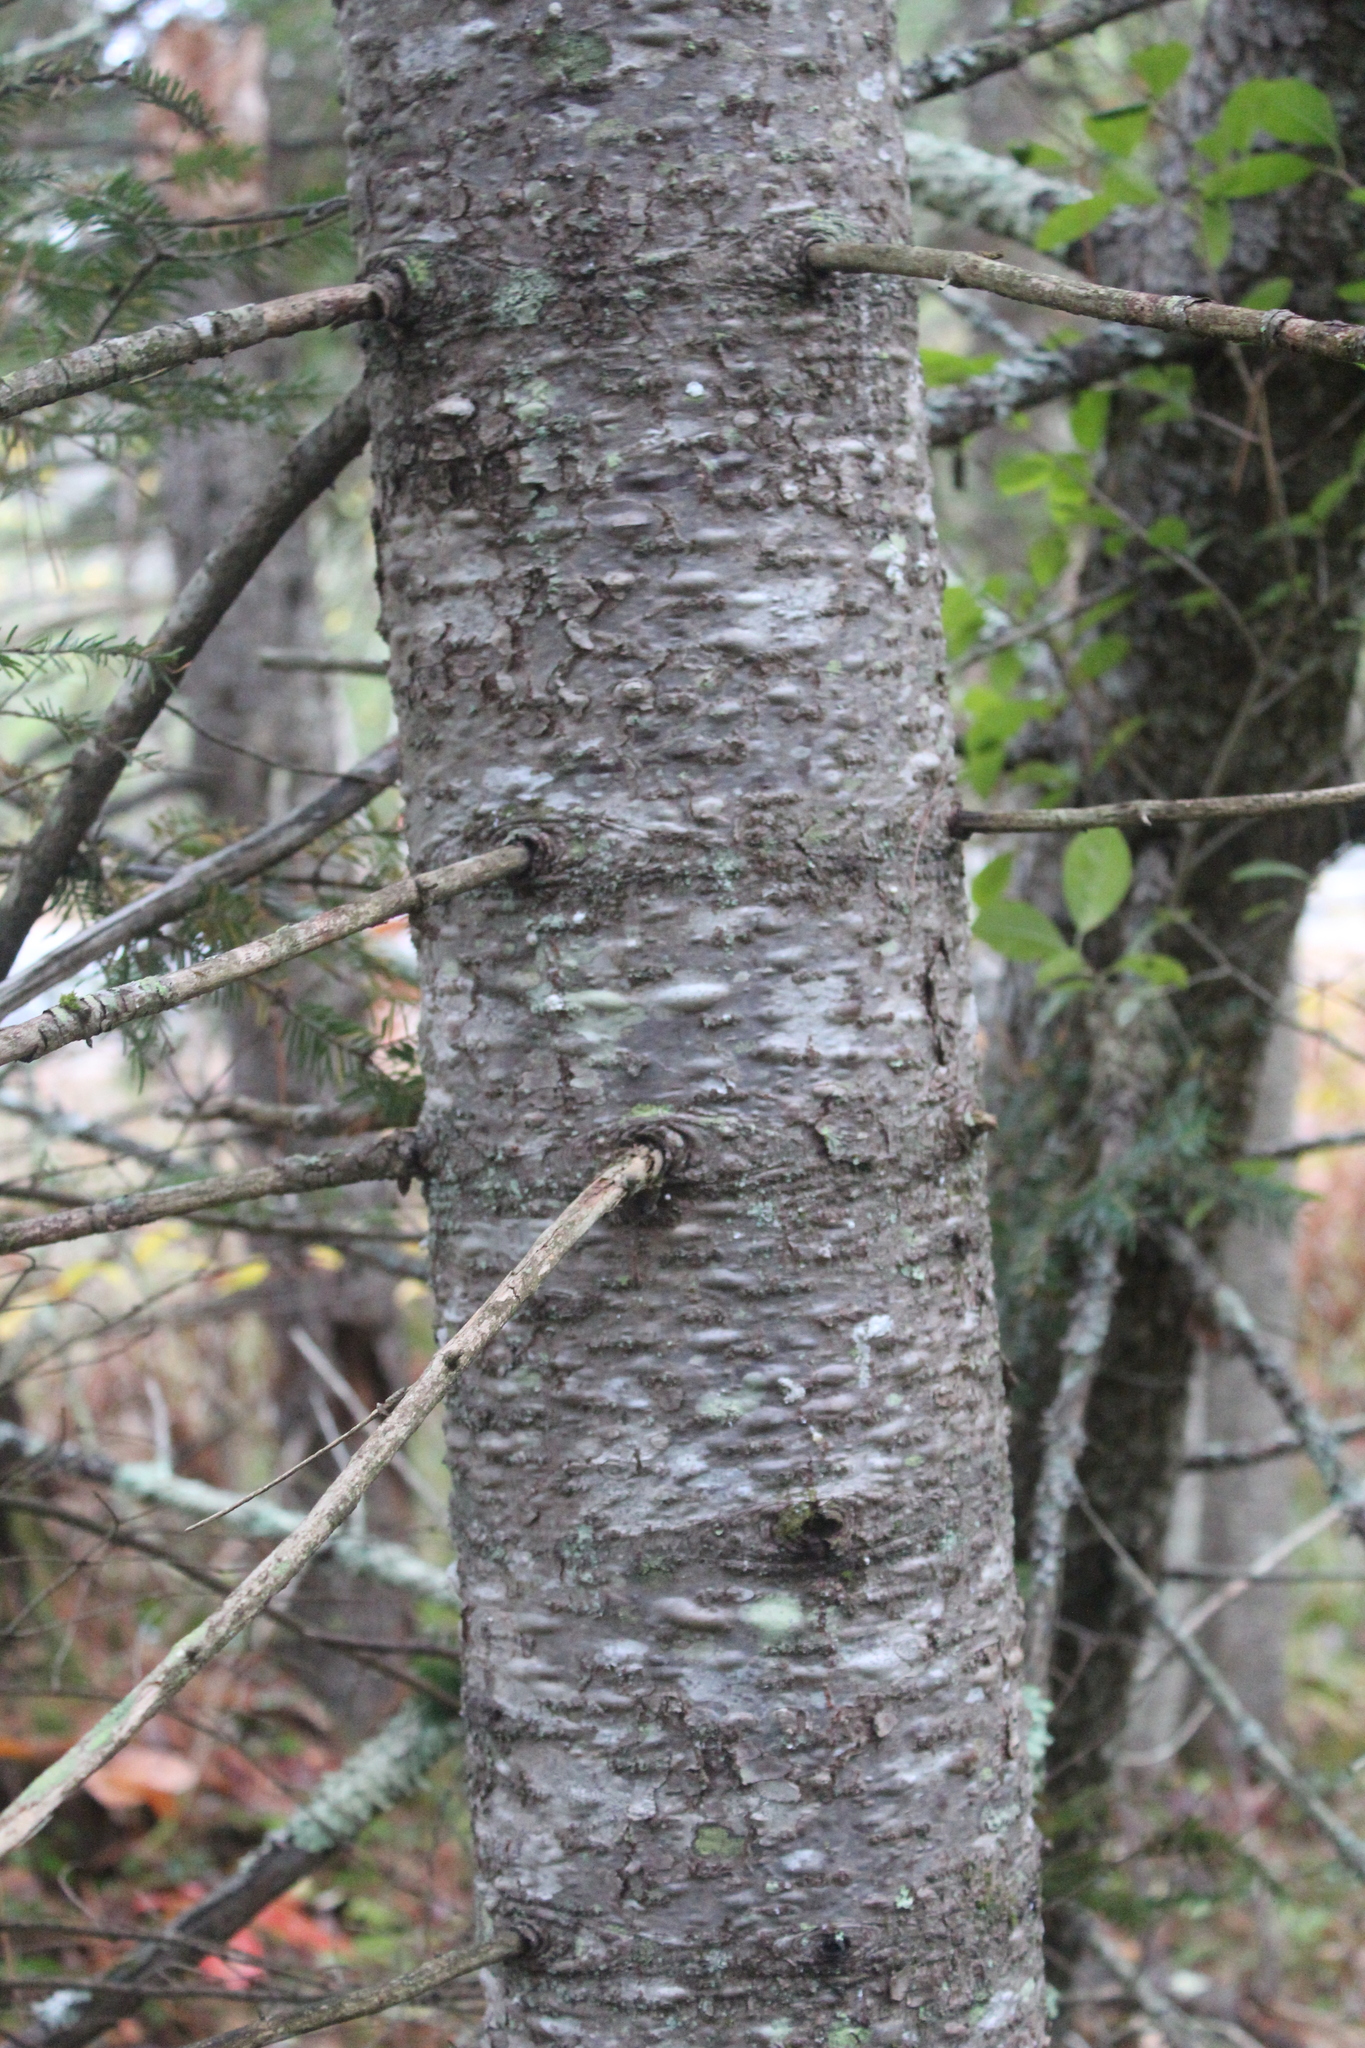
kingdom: Plantae
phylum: Tracheophyta
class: Pinopsida
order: Pinales
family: Pinaceae
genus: Abies
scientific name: Abies balsamea
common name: Balsam fir
